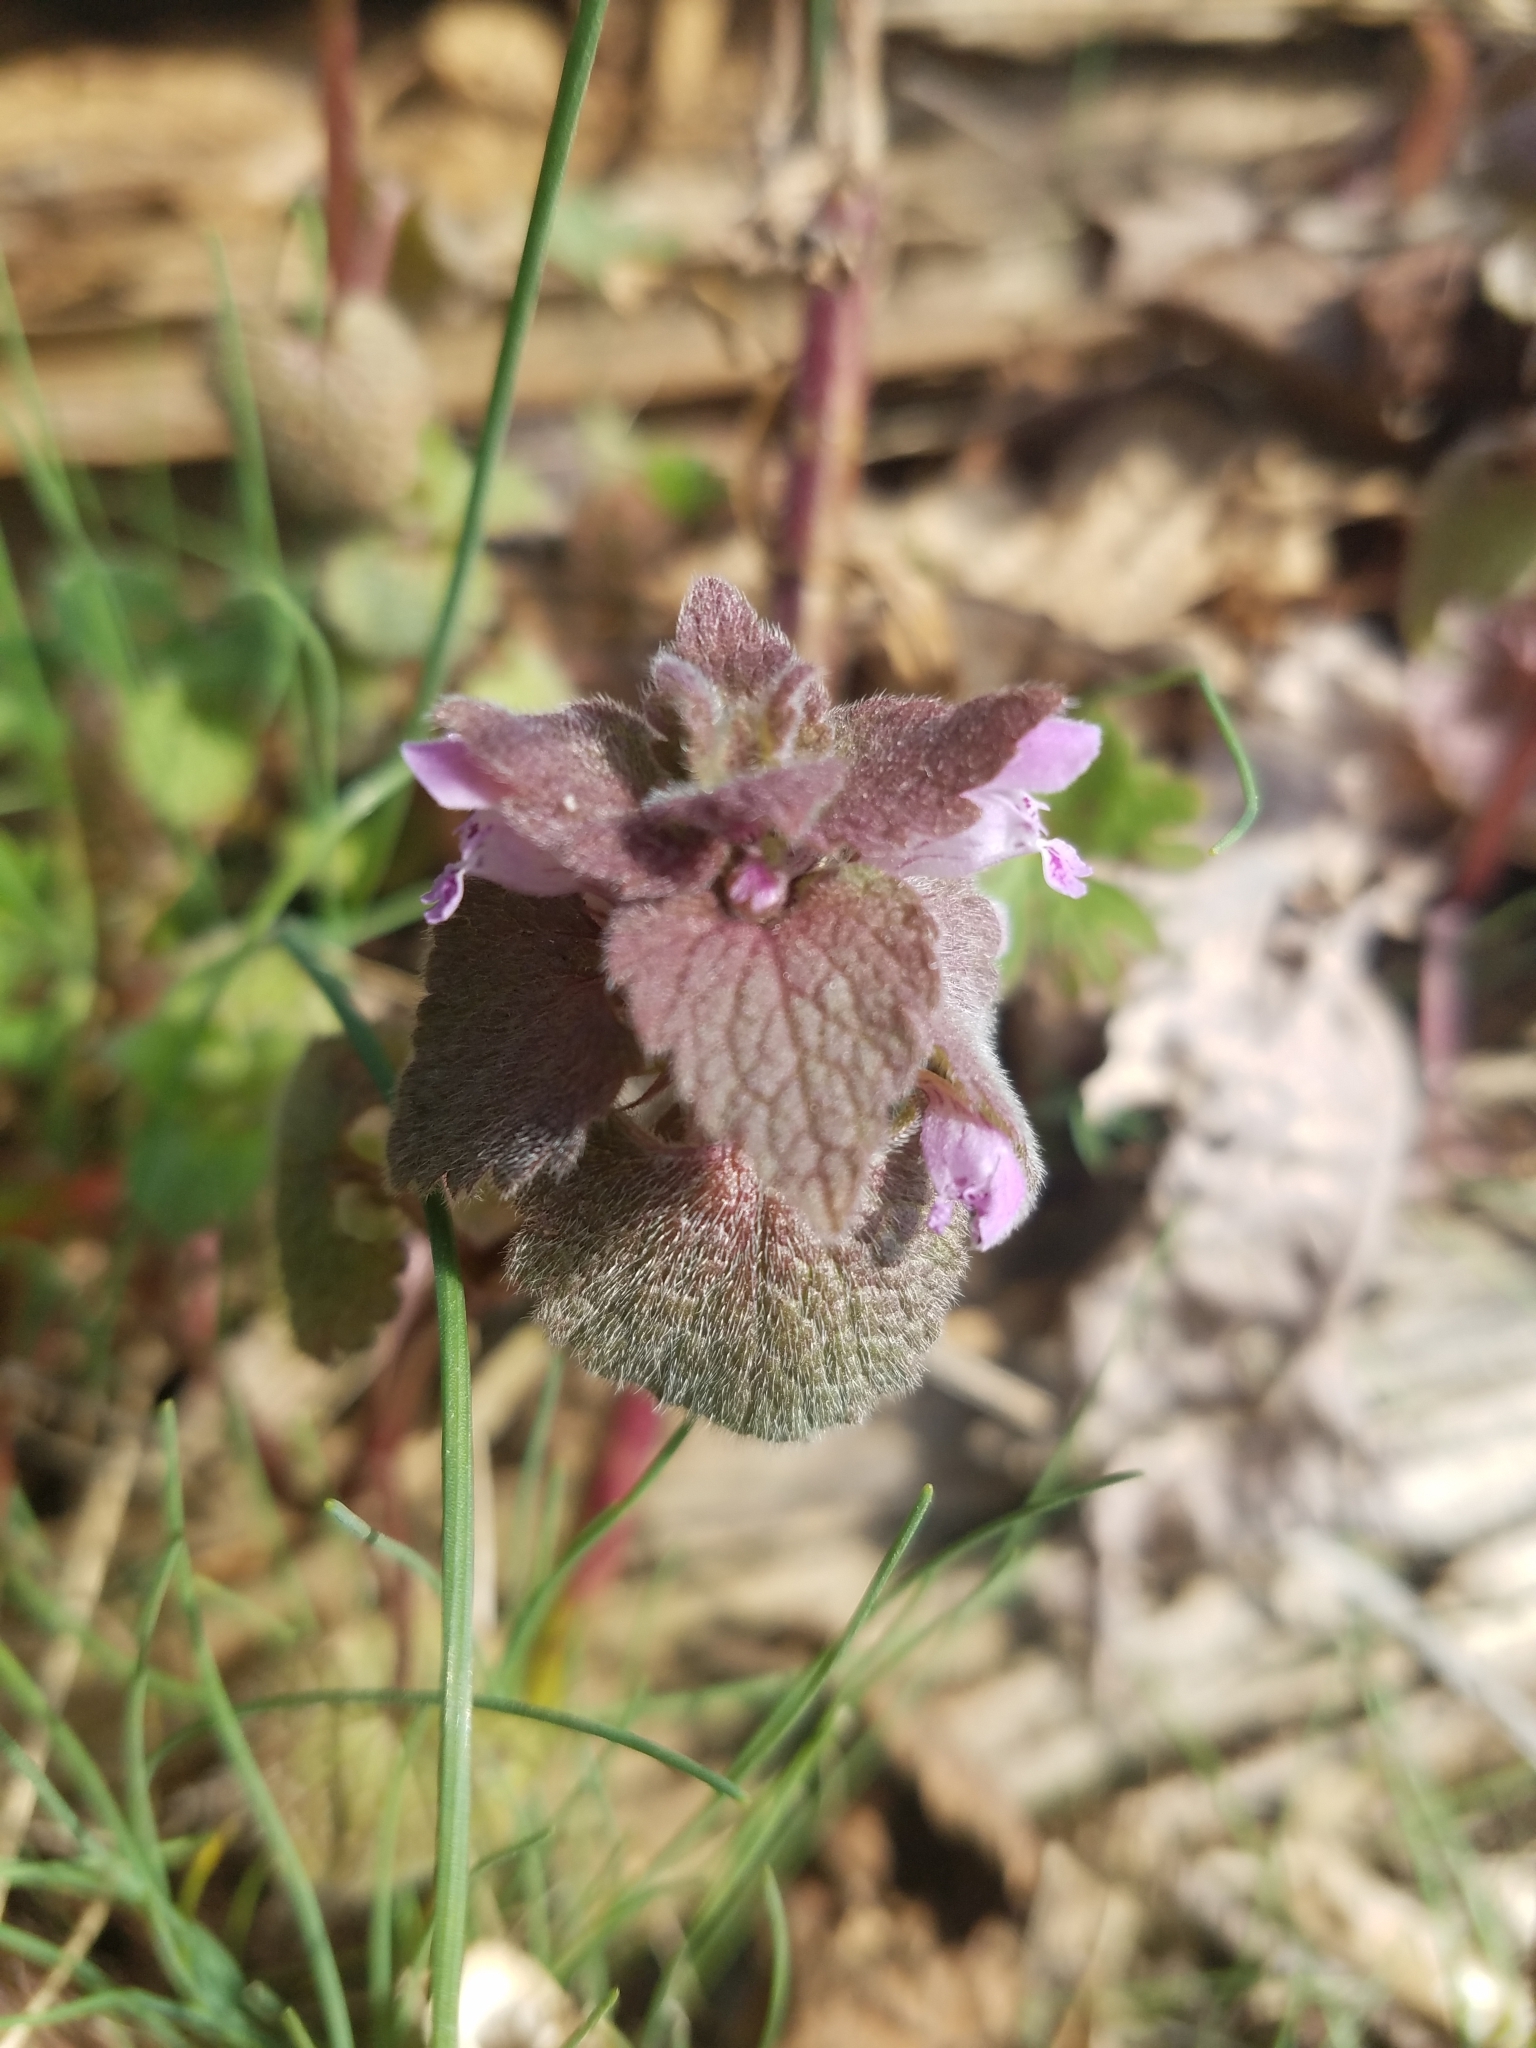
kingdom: Plantae
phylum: Tracheophyta
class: Magnoliopsida
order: Lamiales
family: Lamiaceae
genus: Lamium
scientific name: Lamium purpureum
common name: Red dead-nettle
